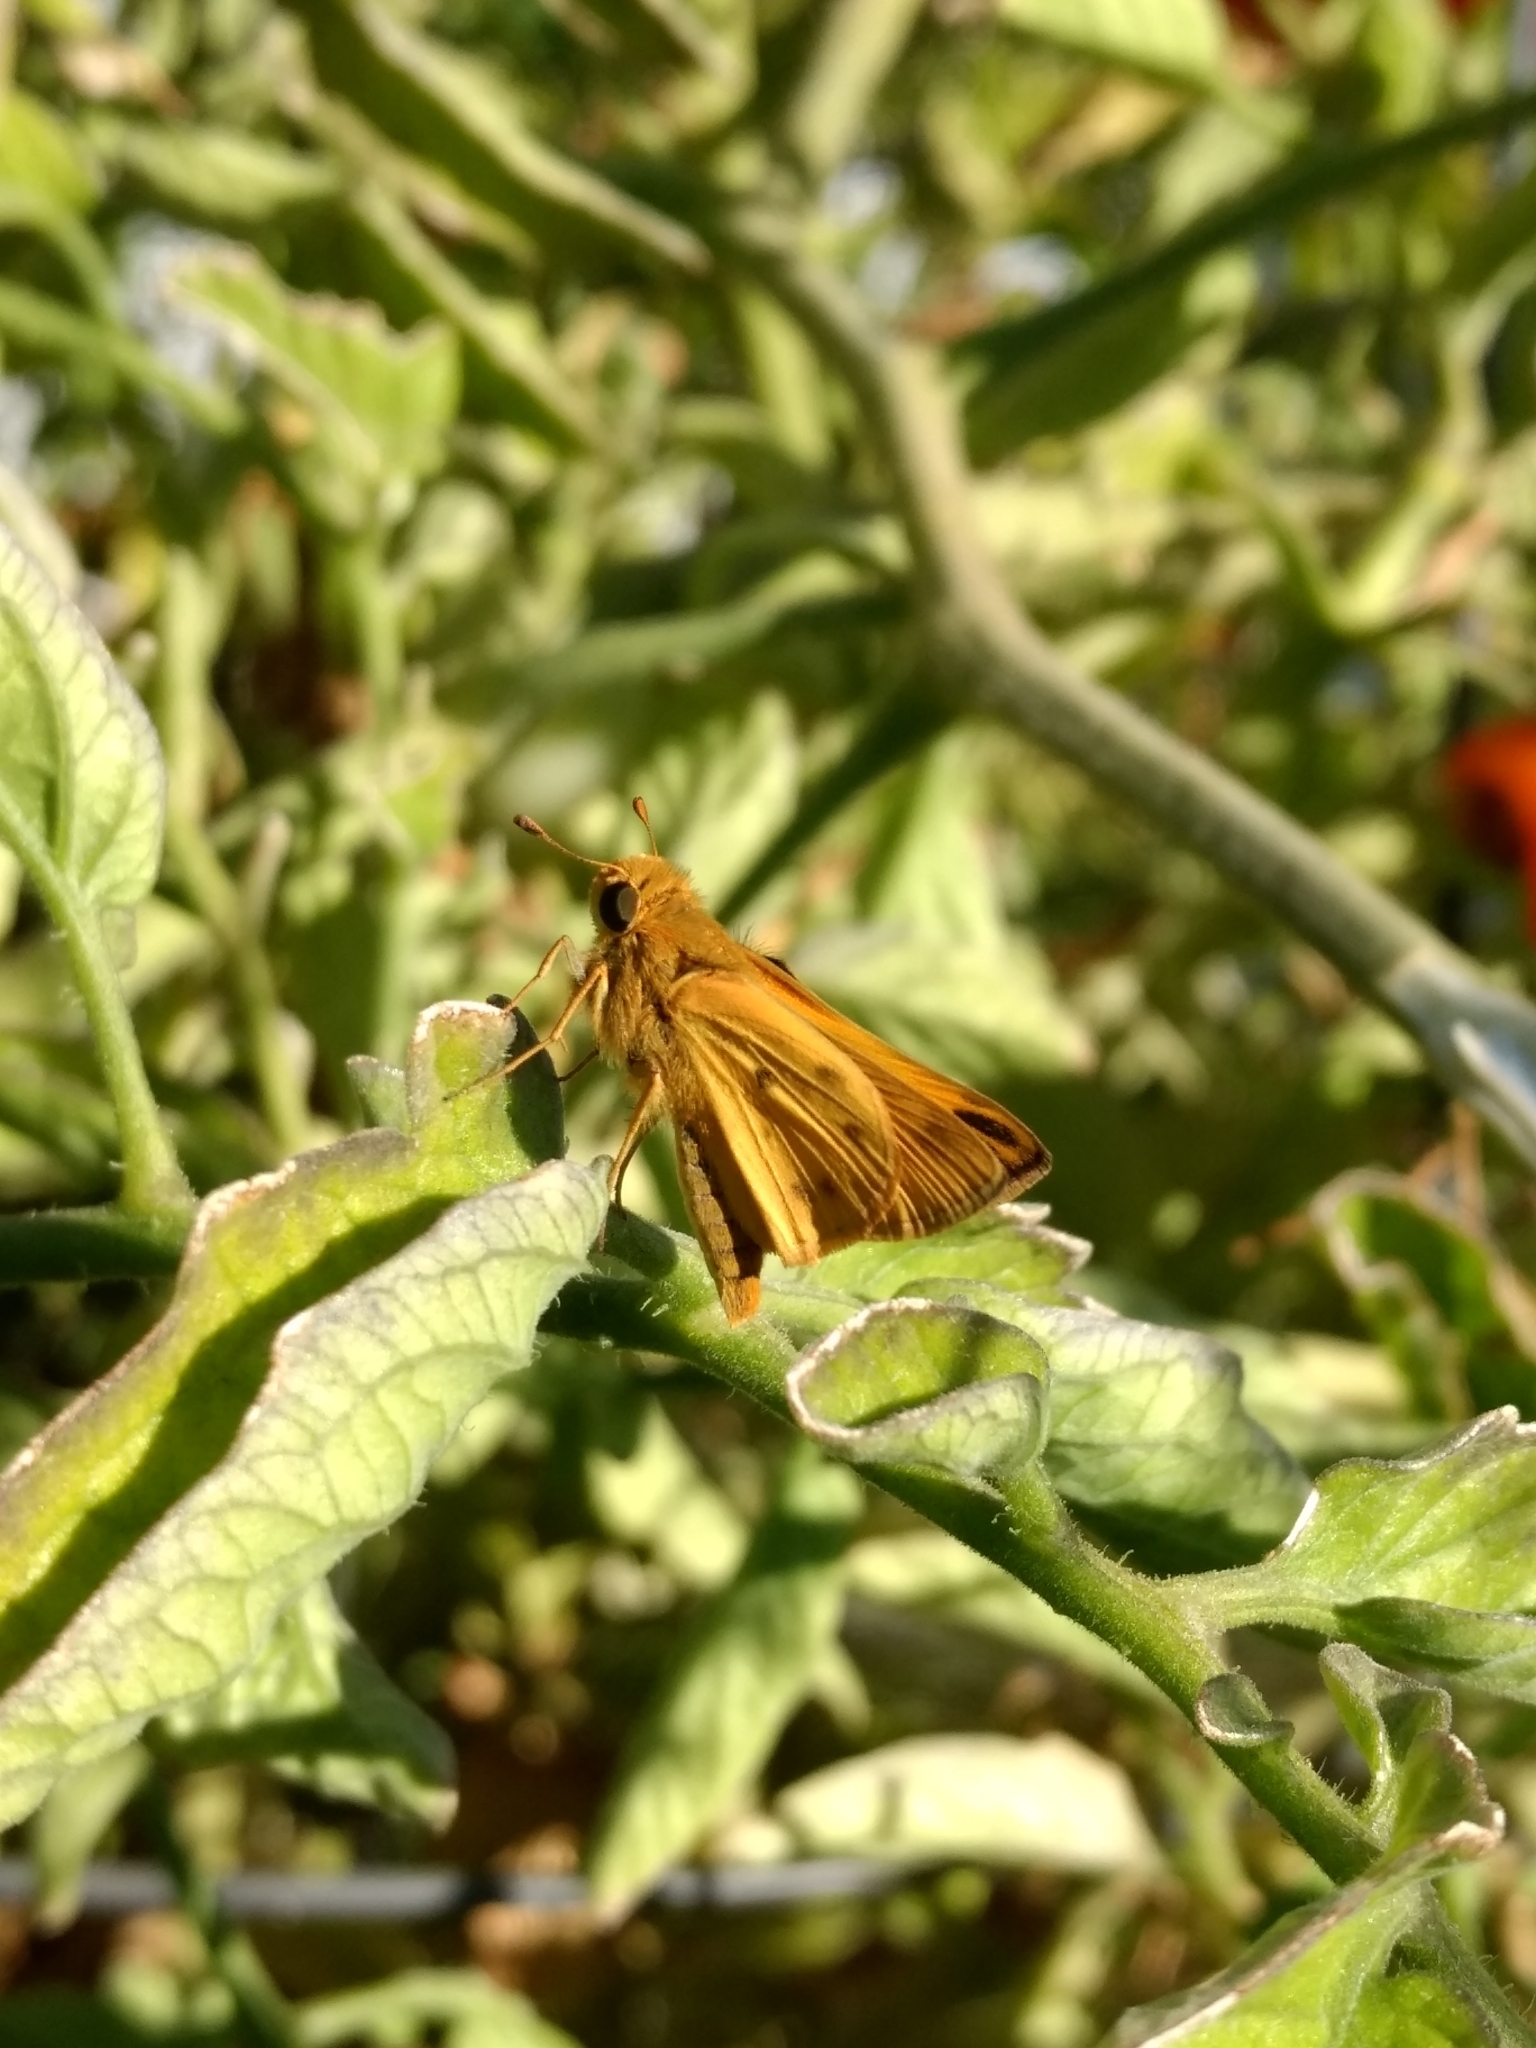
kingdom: Animalia
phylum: Arthropoda
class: Insecta
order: Lepidoptera
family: Hesperiidae
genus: Hylephila
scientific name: Hylephila phyleus
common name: Fiery skipper
